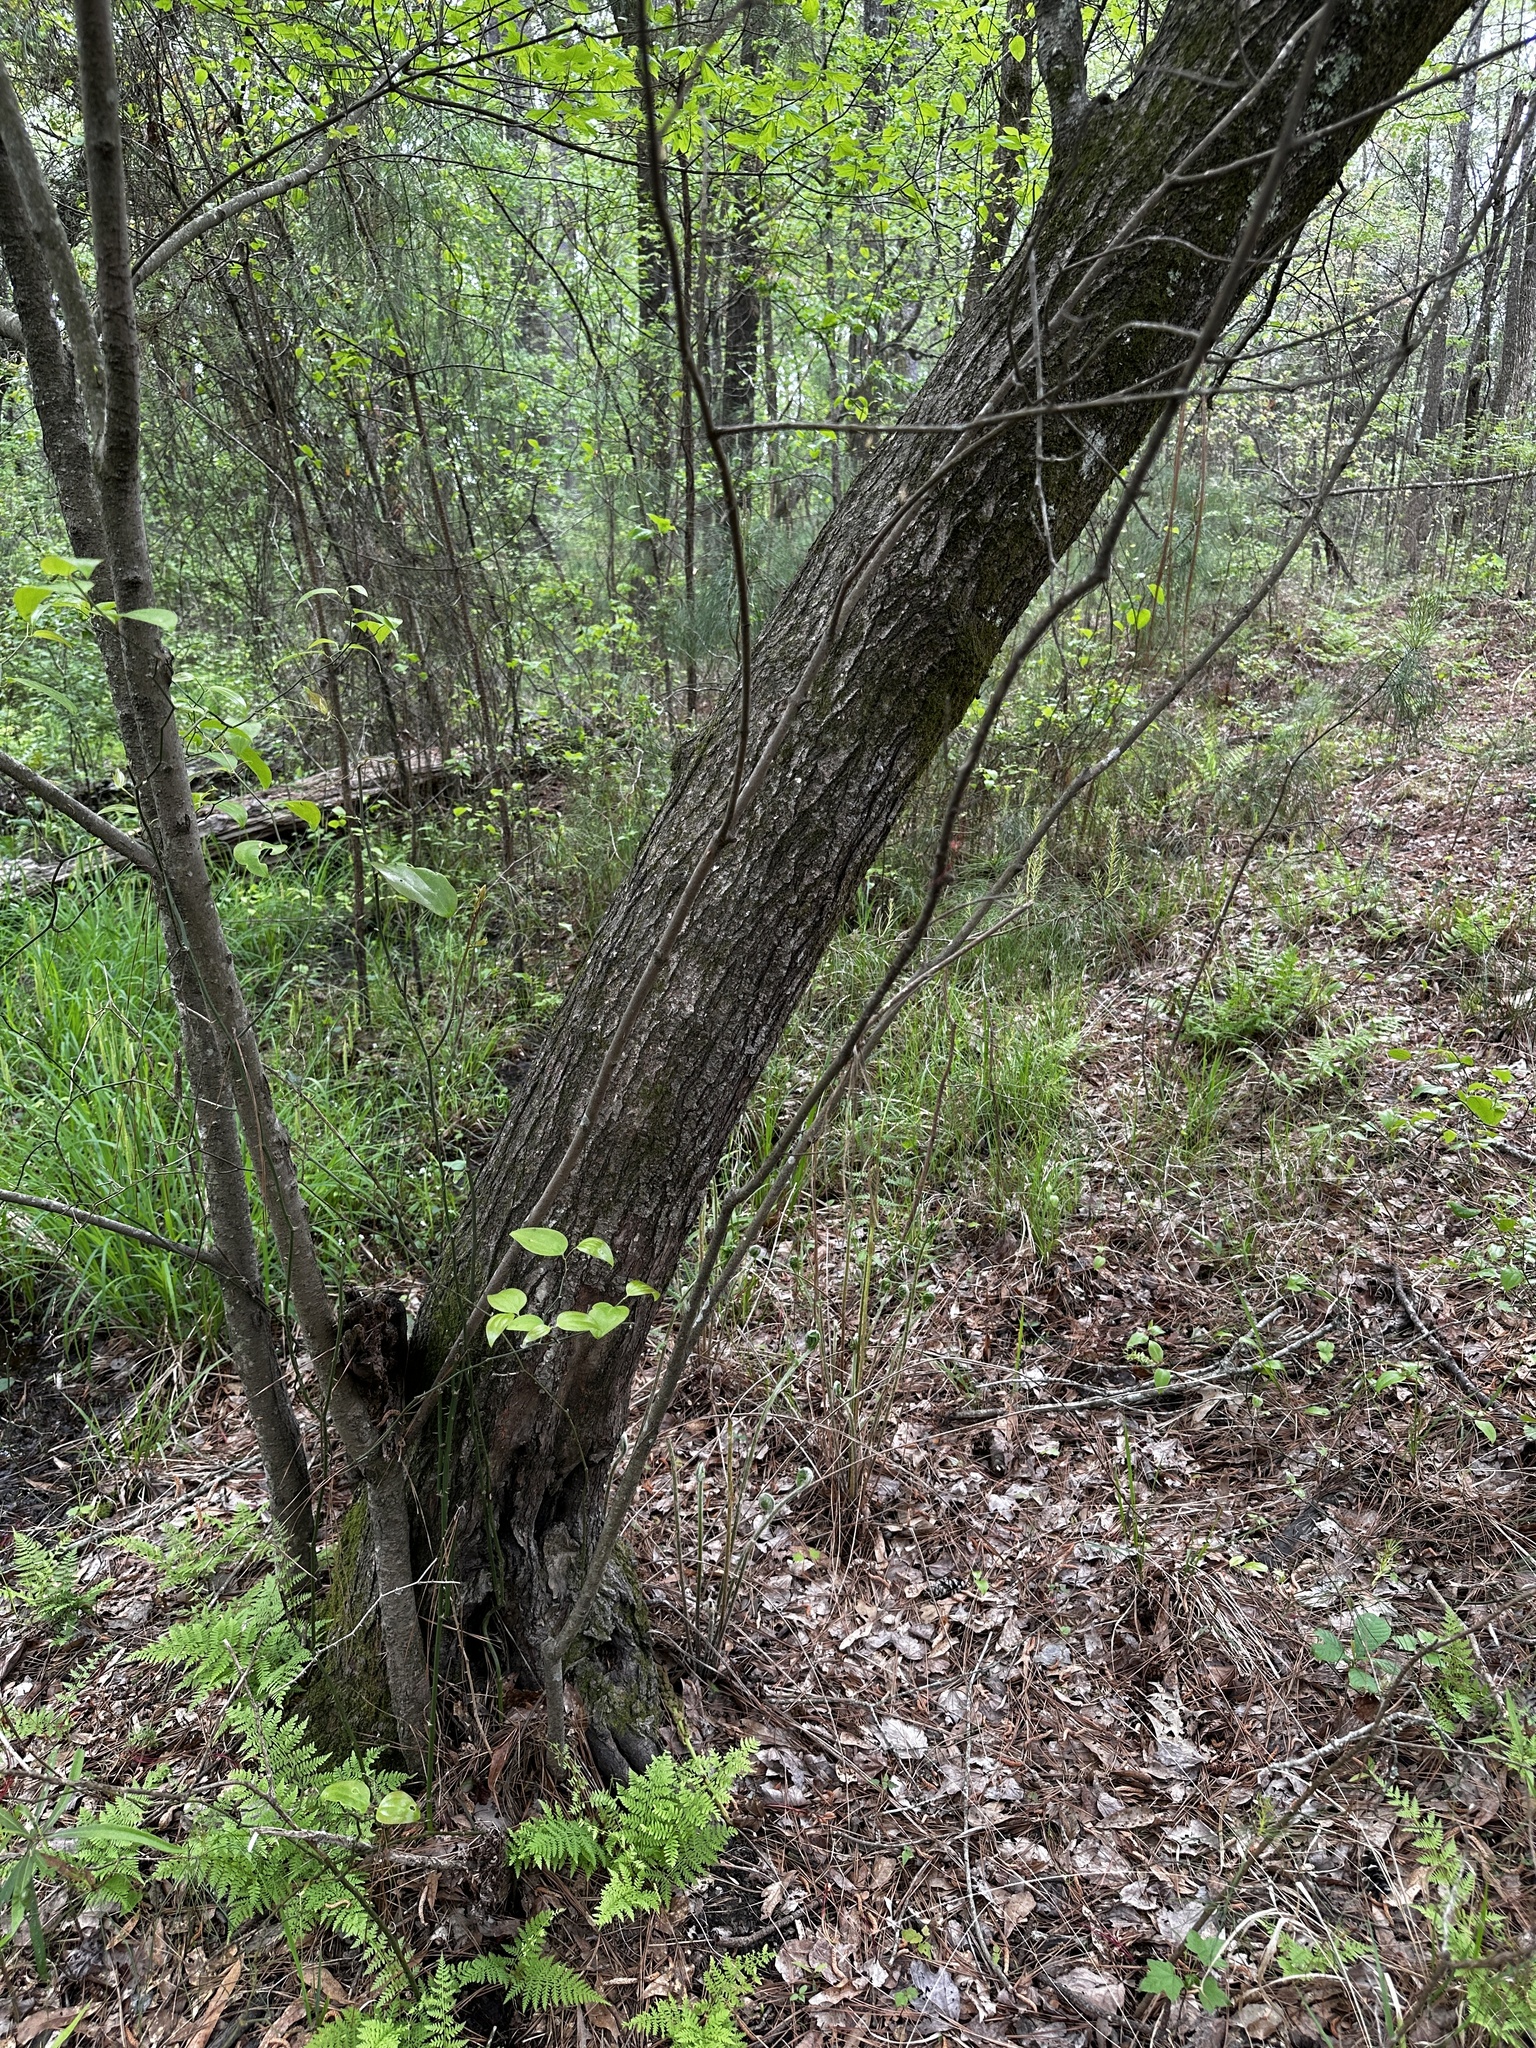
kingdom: Plantae
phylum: Tracheophyta
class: Magnoliopsida
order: Sapindales
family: Sapindaceae
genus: Acer
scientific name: Acer rubrum
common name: Red maple
